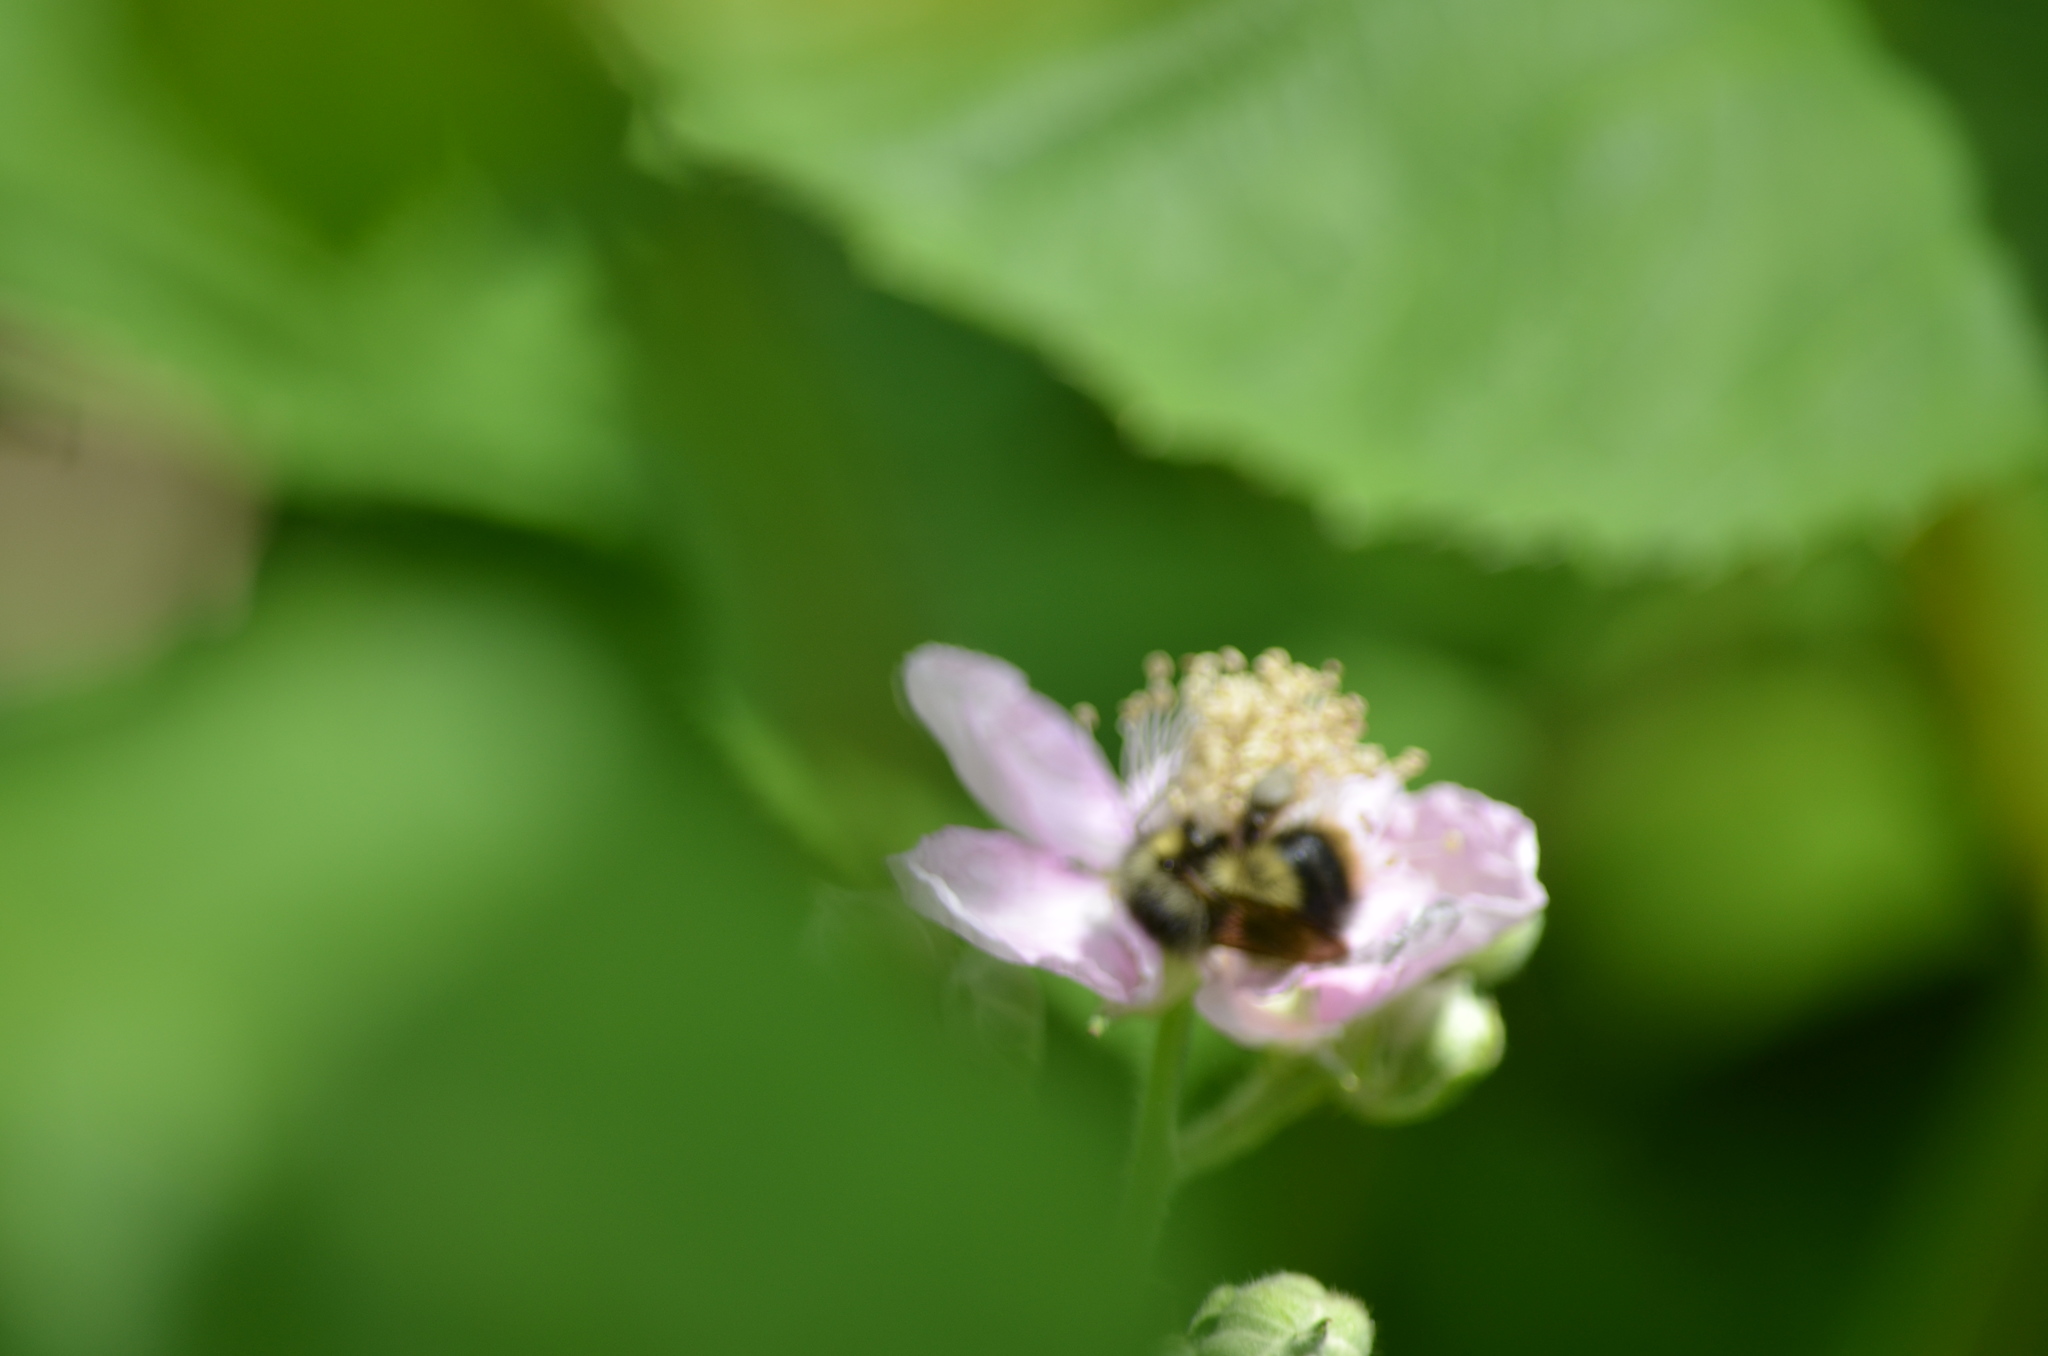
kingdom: Animalia
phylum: Arthropoda
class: Insecta
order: Hymenoptera
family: Apidae
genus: Bombus
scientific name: Bombus mixtus
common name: Fuzzy-horned bumble bee
